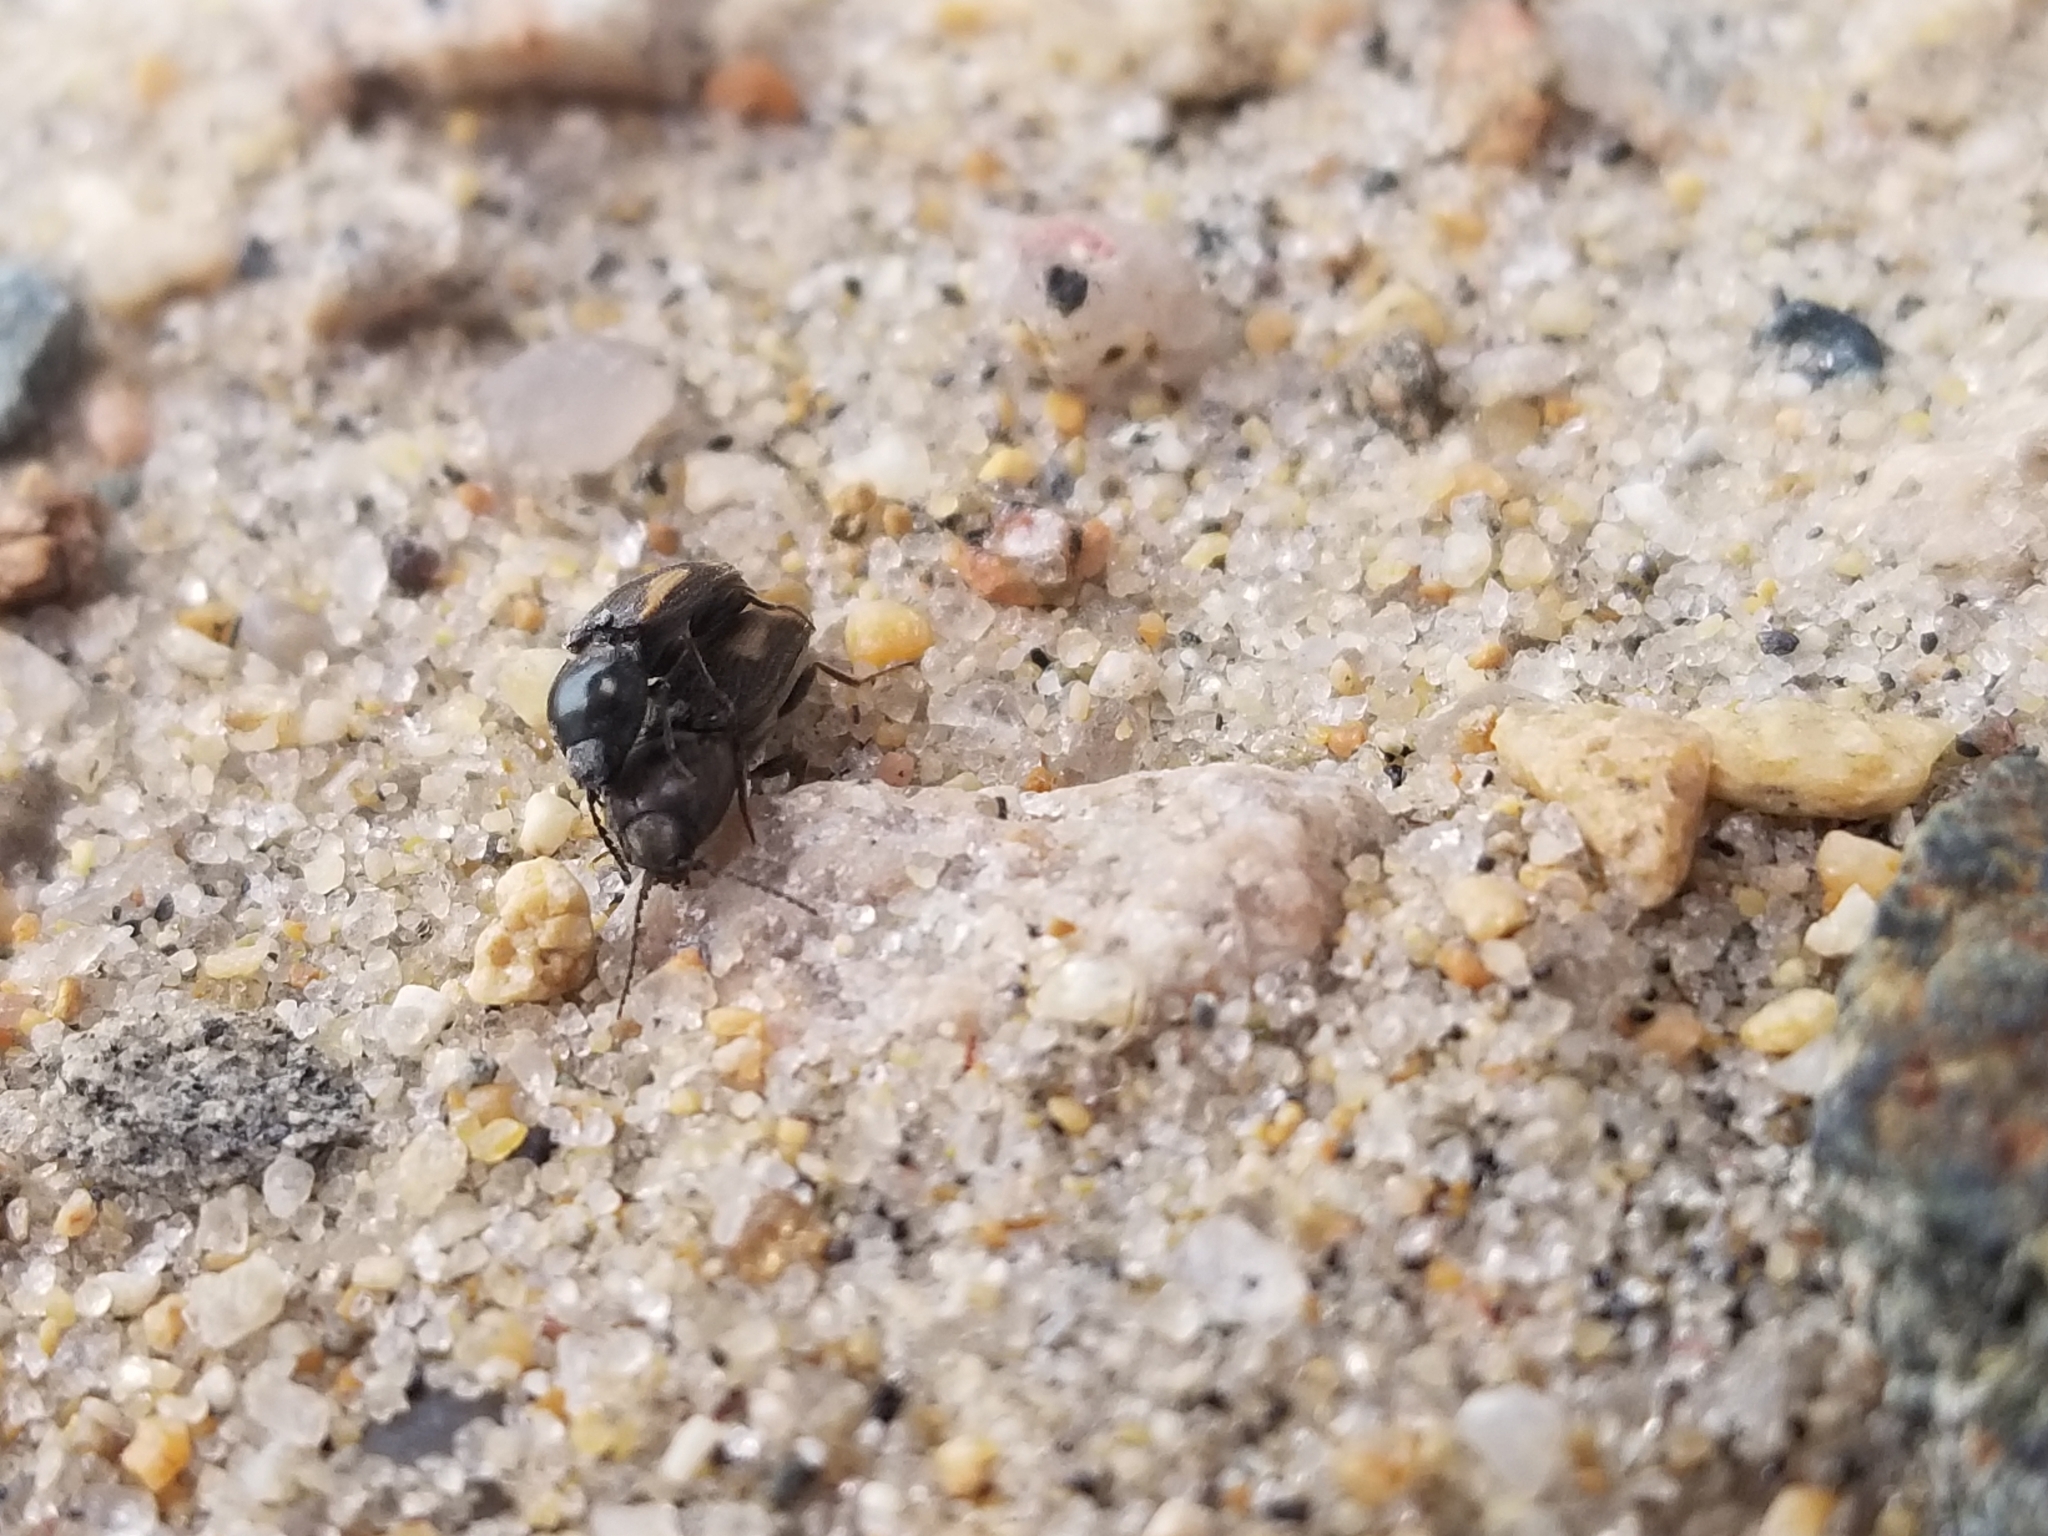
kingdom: Animalia
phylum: Arthropoda
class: Insecta
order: Coleoptera
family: Elateridae
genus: Paracardiophorus
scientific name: Paracardiophorus cardisce
